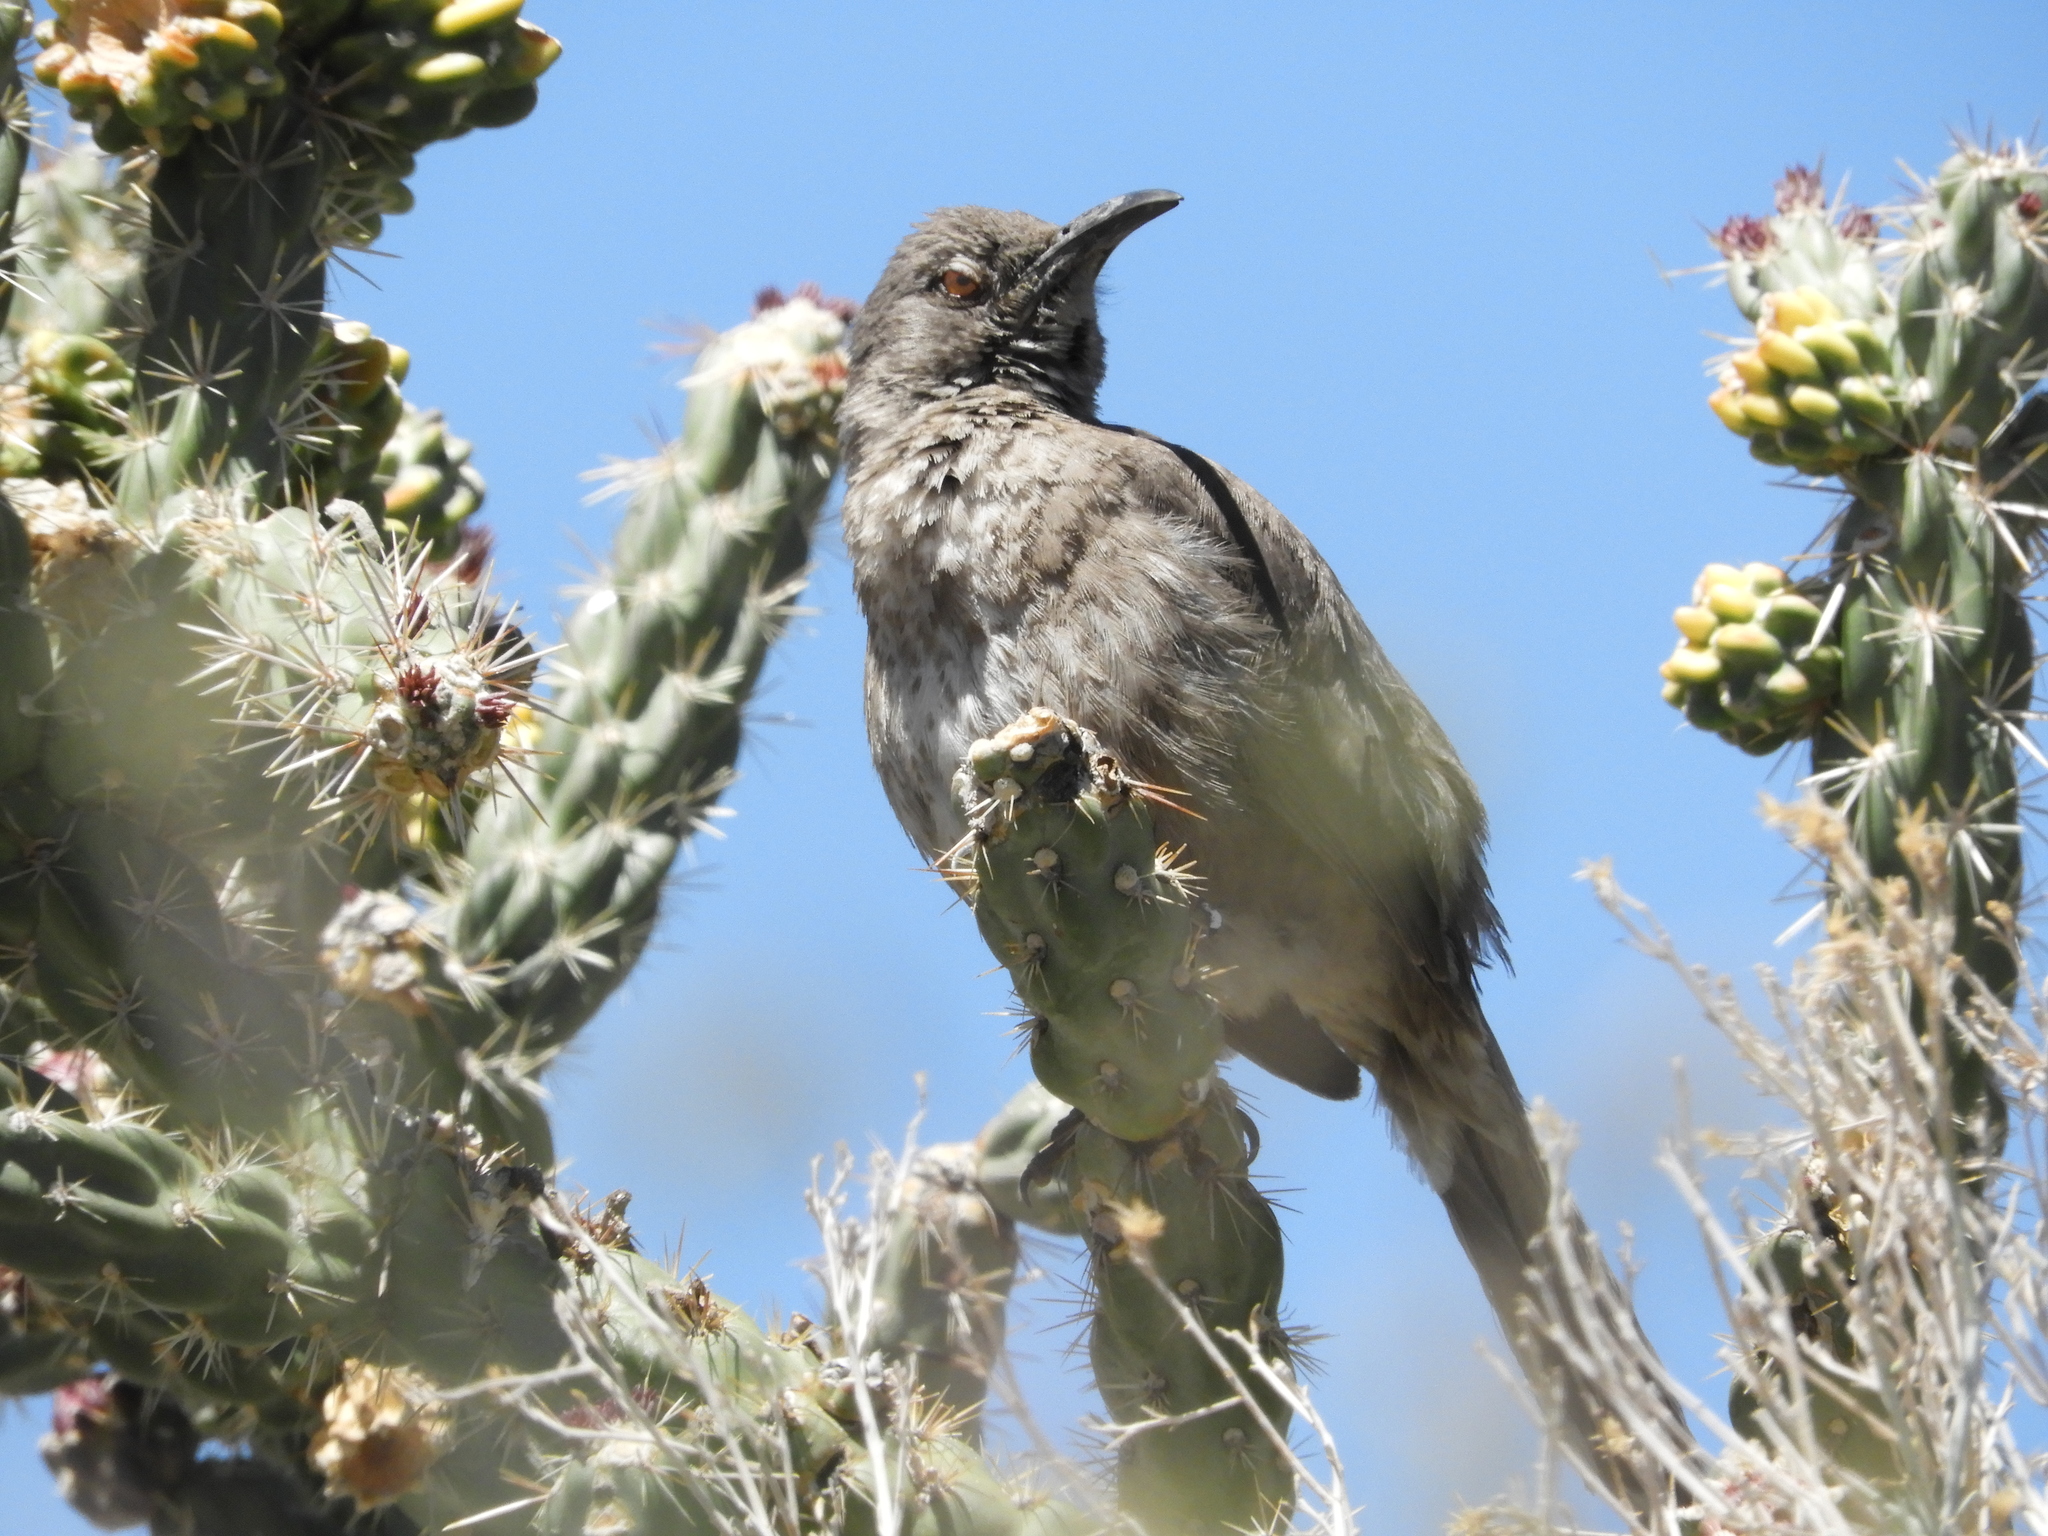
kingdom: Animalia
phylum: Chordata
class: Aves
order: Passeriformes
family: Mimidae
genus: Toxostoma
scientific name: Toxostoma curvirostre
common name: Curve-billed thrasher
